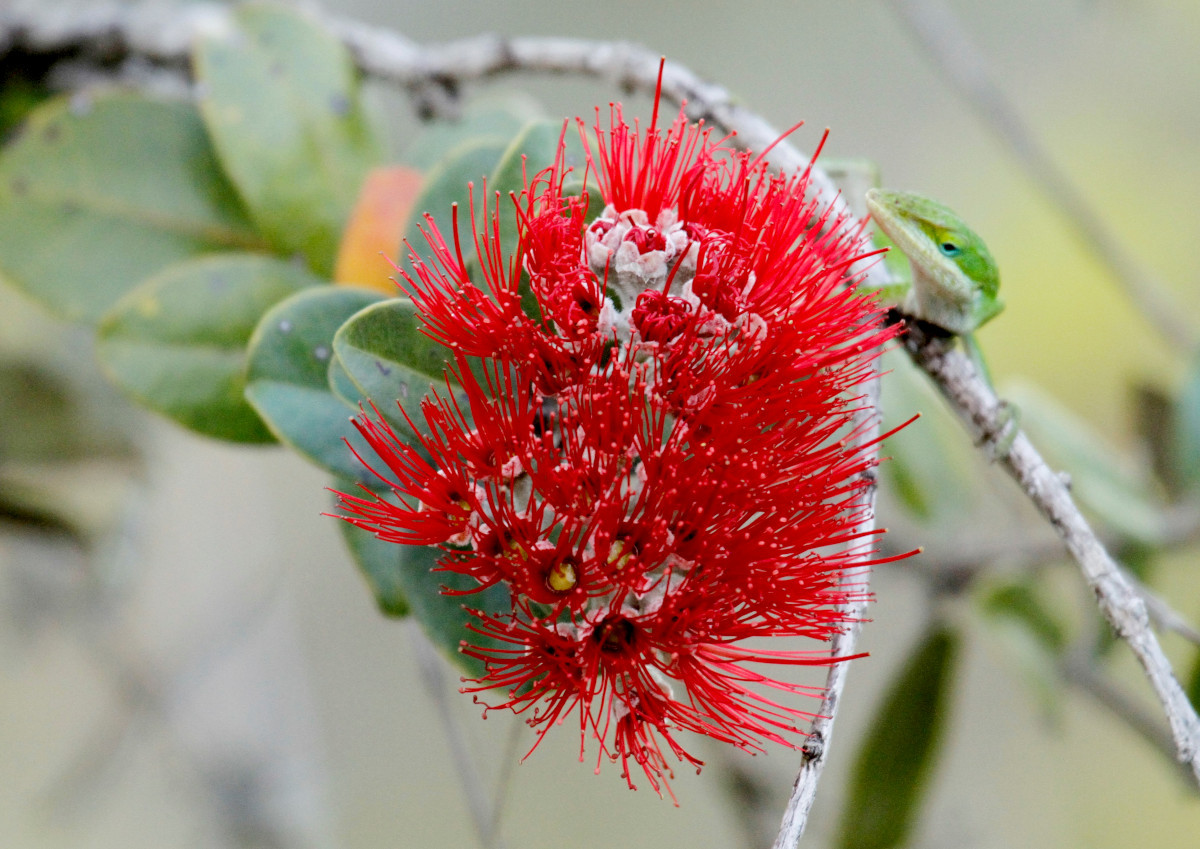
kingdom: Plantae
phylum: Tracheophyta
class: Magnoliopsida
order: Myrtales
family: Myrtaceae
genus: Metrosideros
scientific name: Metrosideros polymorpha
